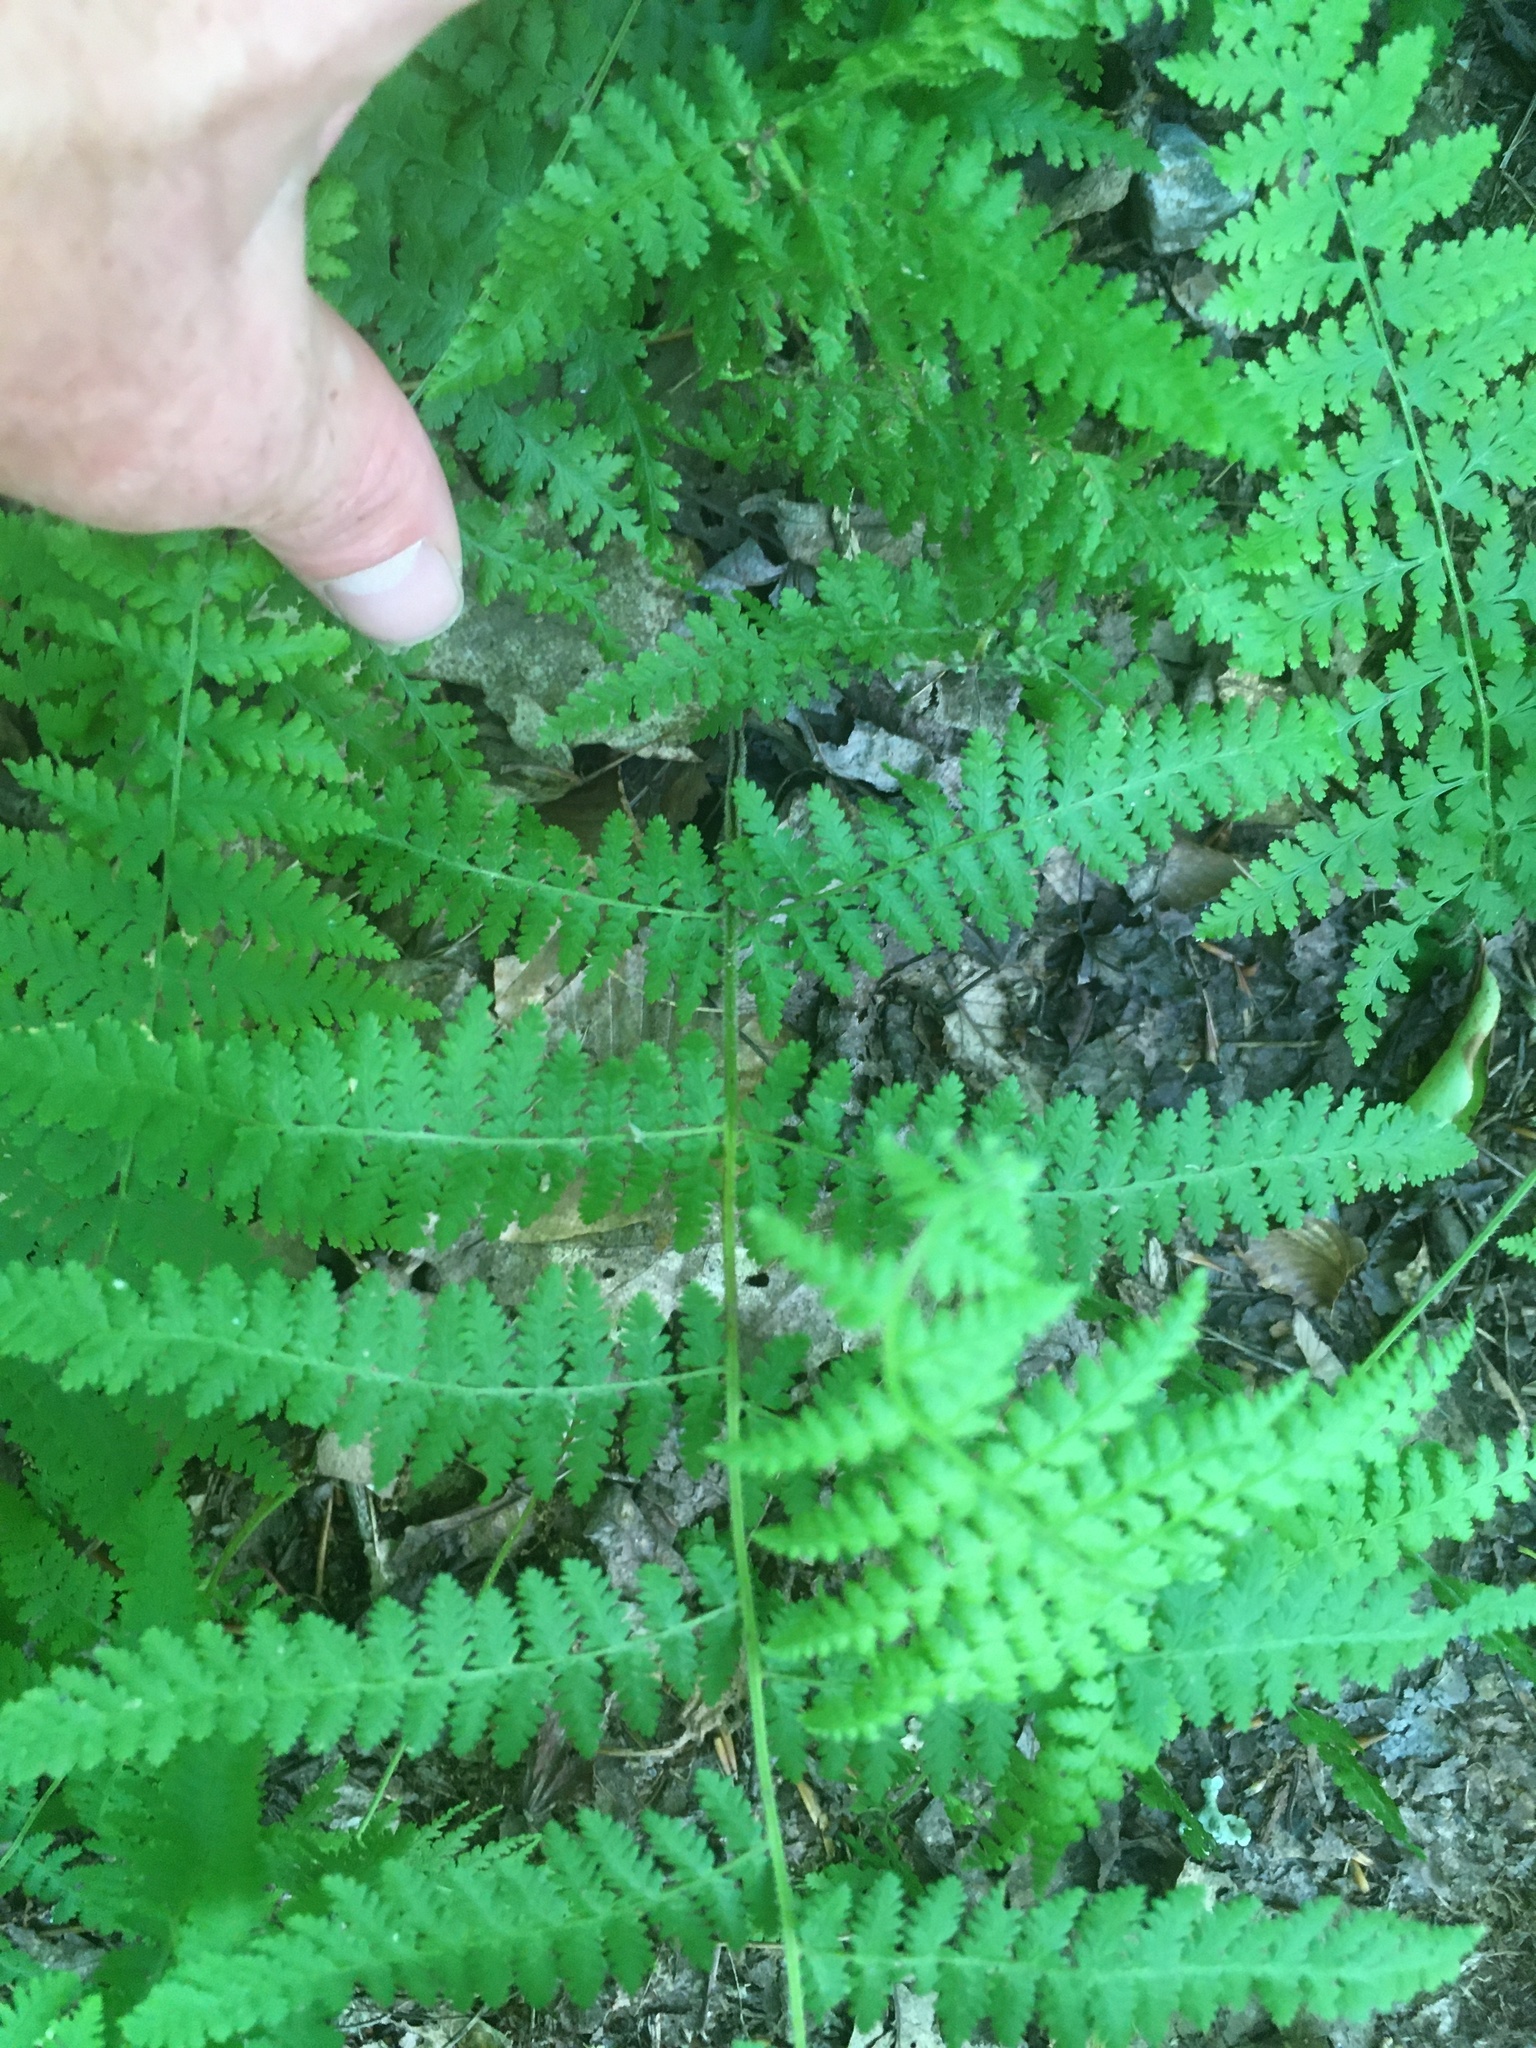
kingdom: Plantae
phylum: Tracheophyta
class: Polypodiopsida
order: Polypodiales
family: Dennstaedtiaceae
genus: Sitobolium
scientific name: Sitobolium punctilobum
